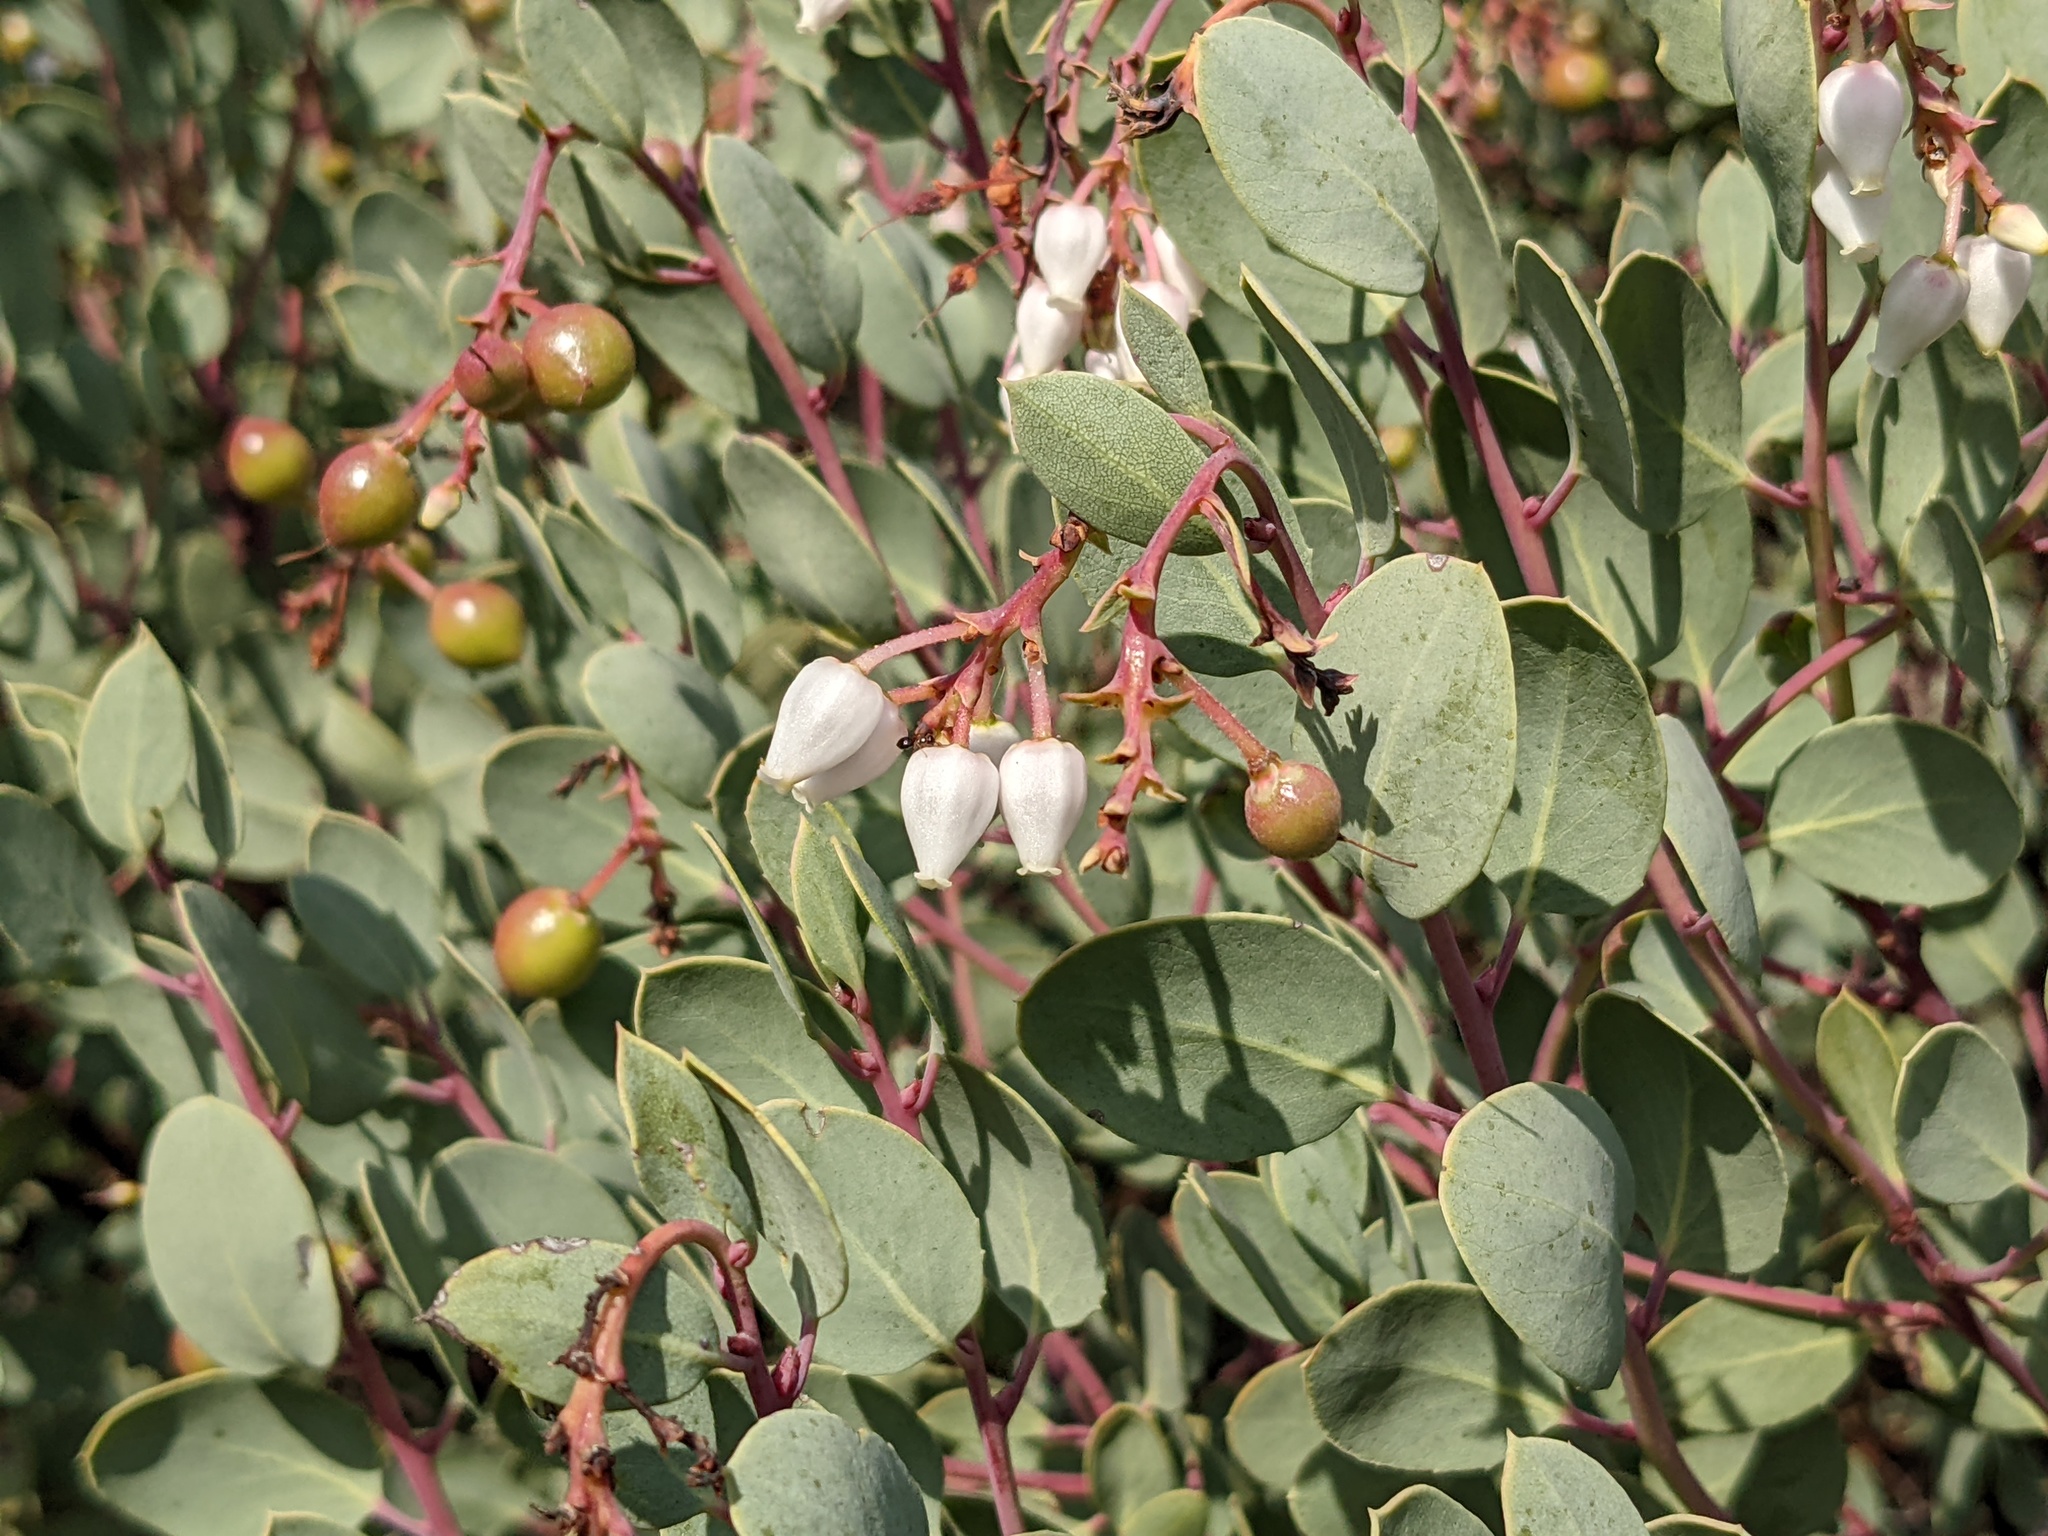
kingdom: Plantae
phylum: Tracheophyta
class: Magnoliopsida
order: Ericales
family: Ericaceae
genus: Arctostaphylos
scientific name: Arctostaphylos glauca
